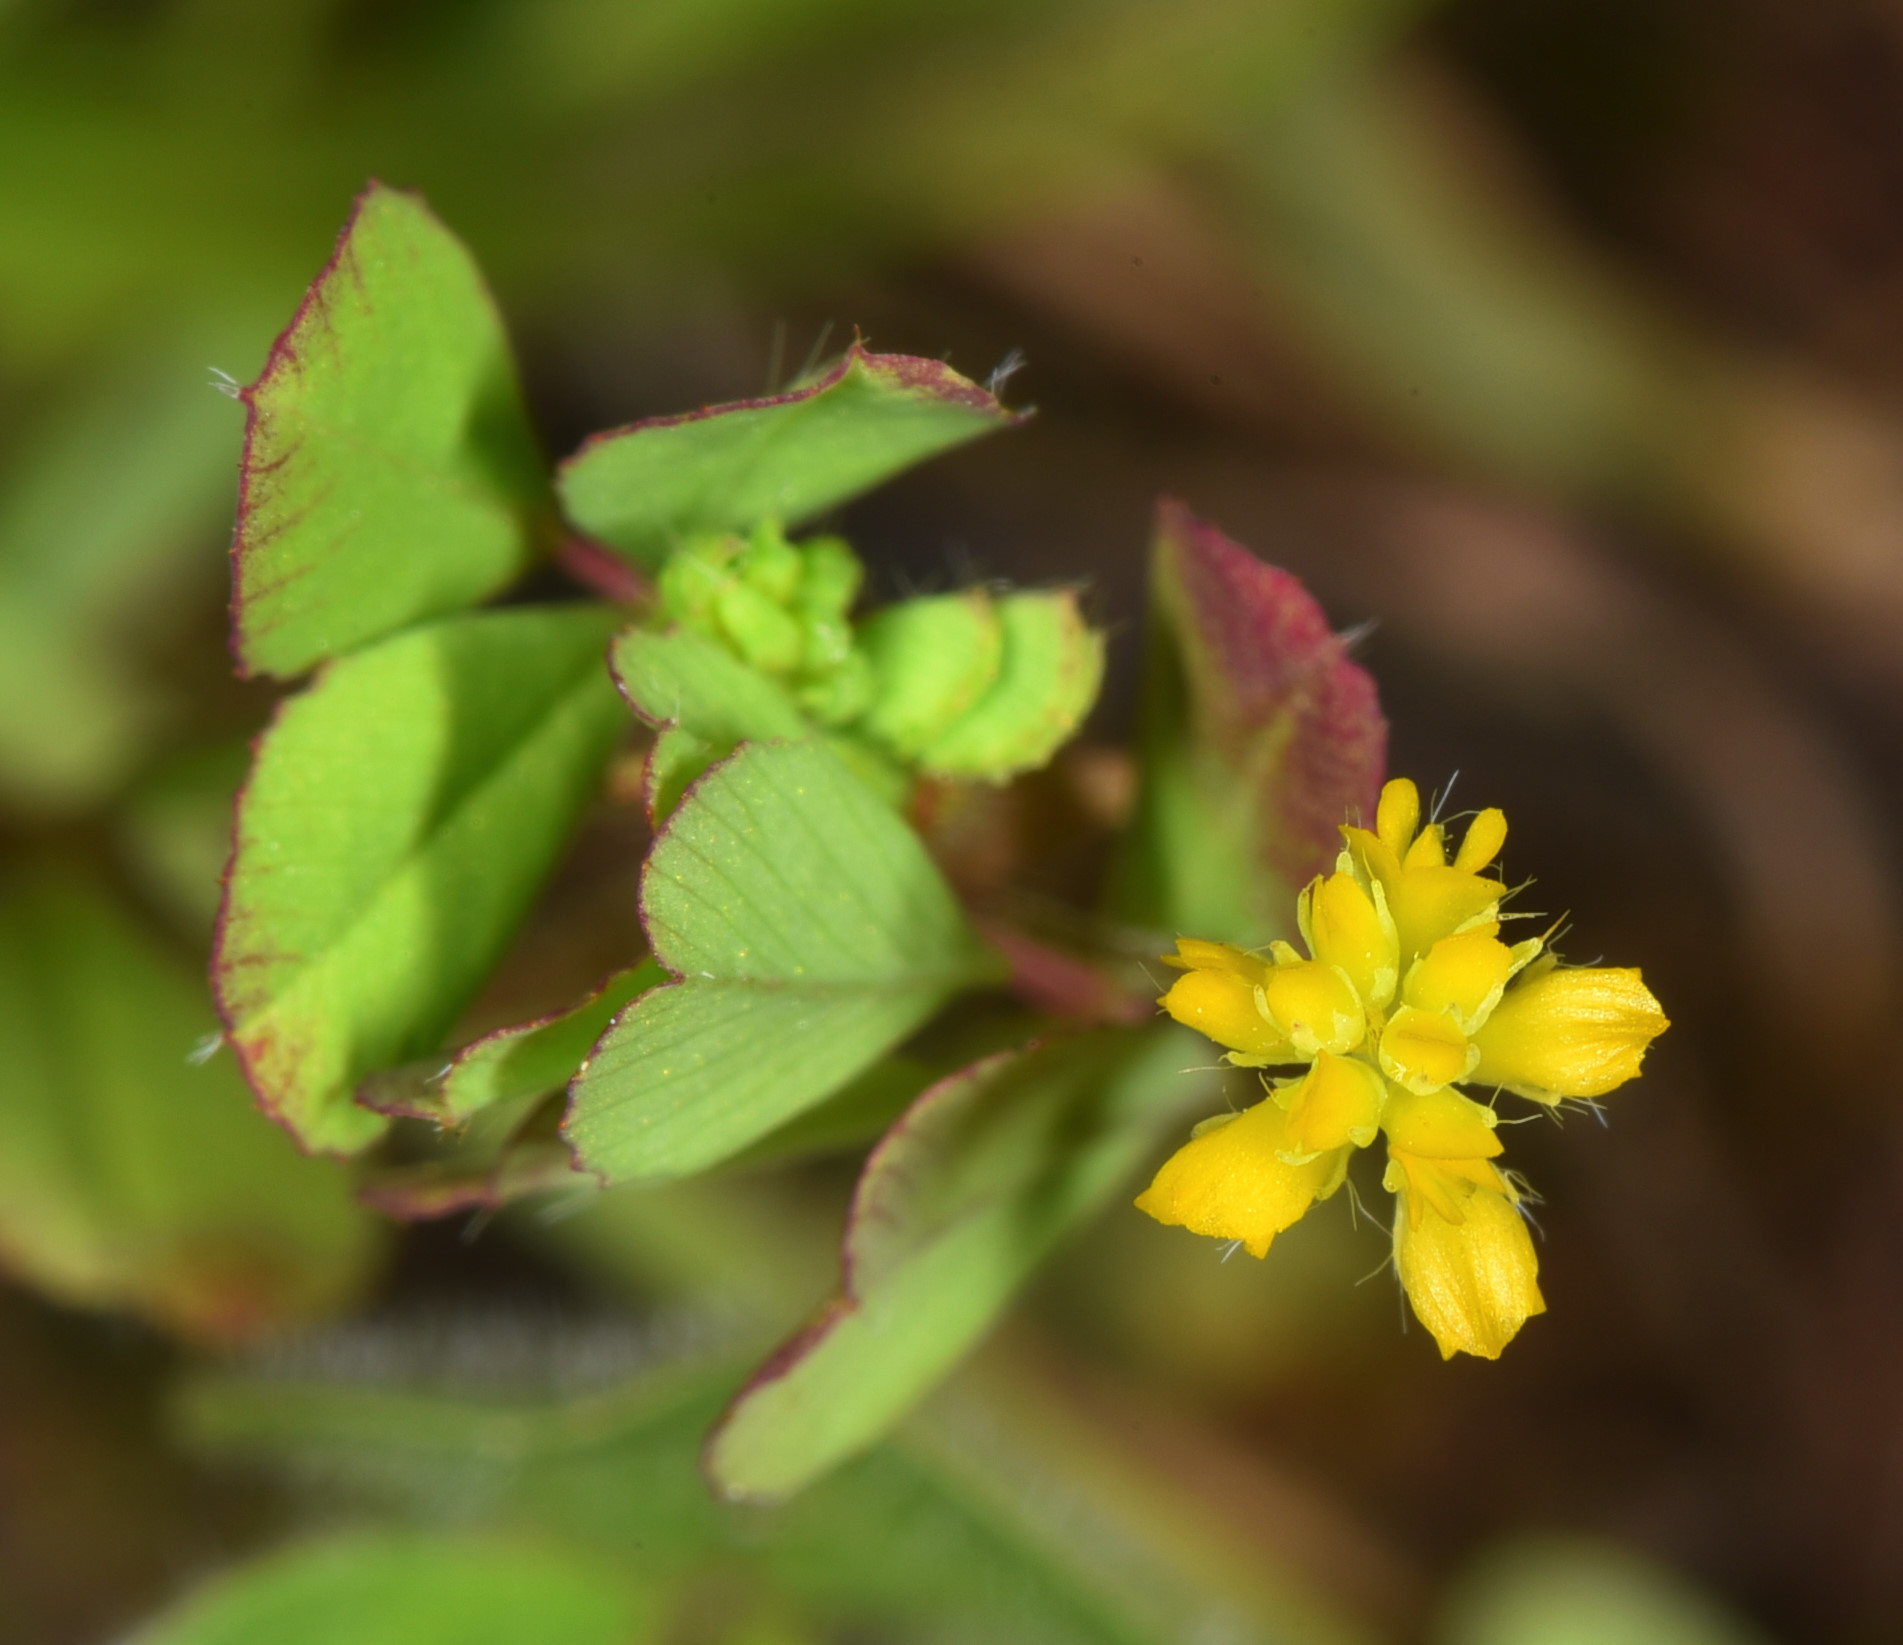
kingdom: Plantae
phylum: Tracheophyta
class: Magnoliopsida
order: Fabales
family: Fabaceae
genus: Trifolium
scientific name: Trifolium dubium
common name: Suckling clover
